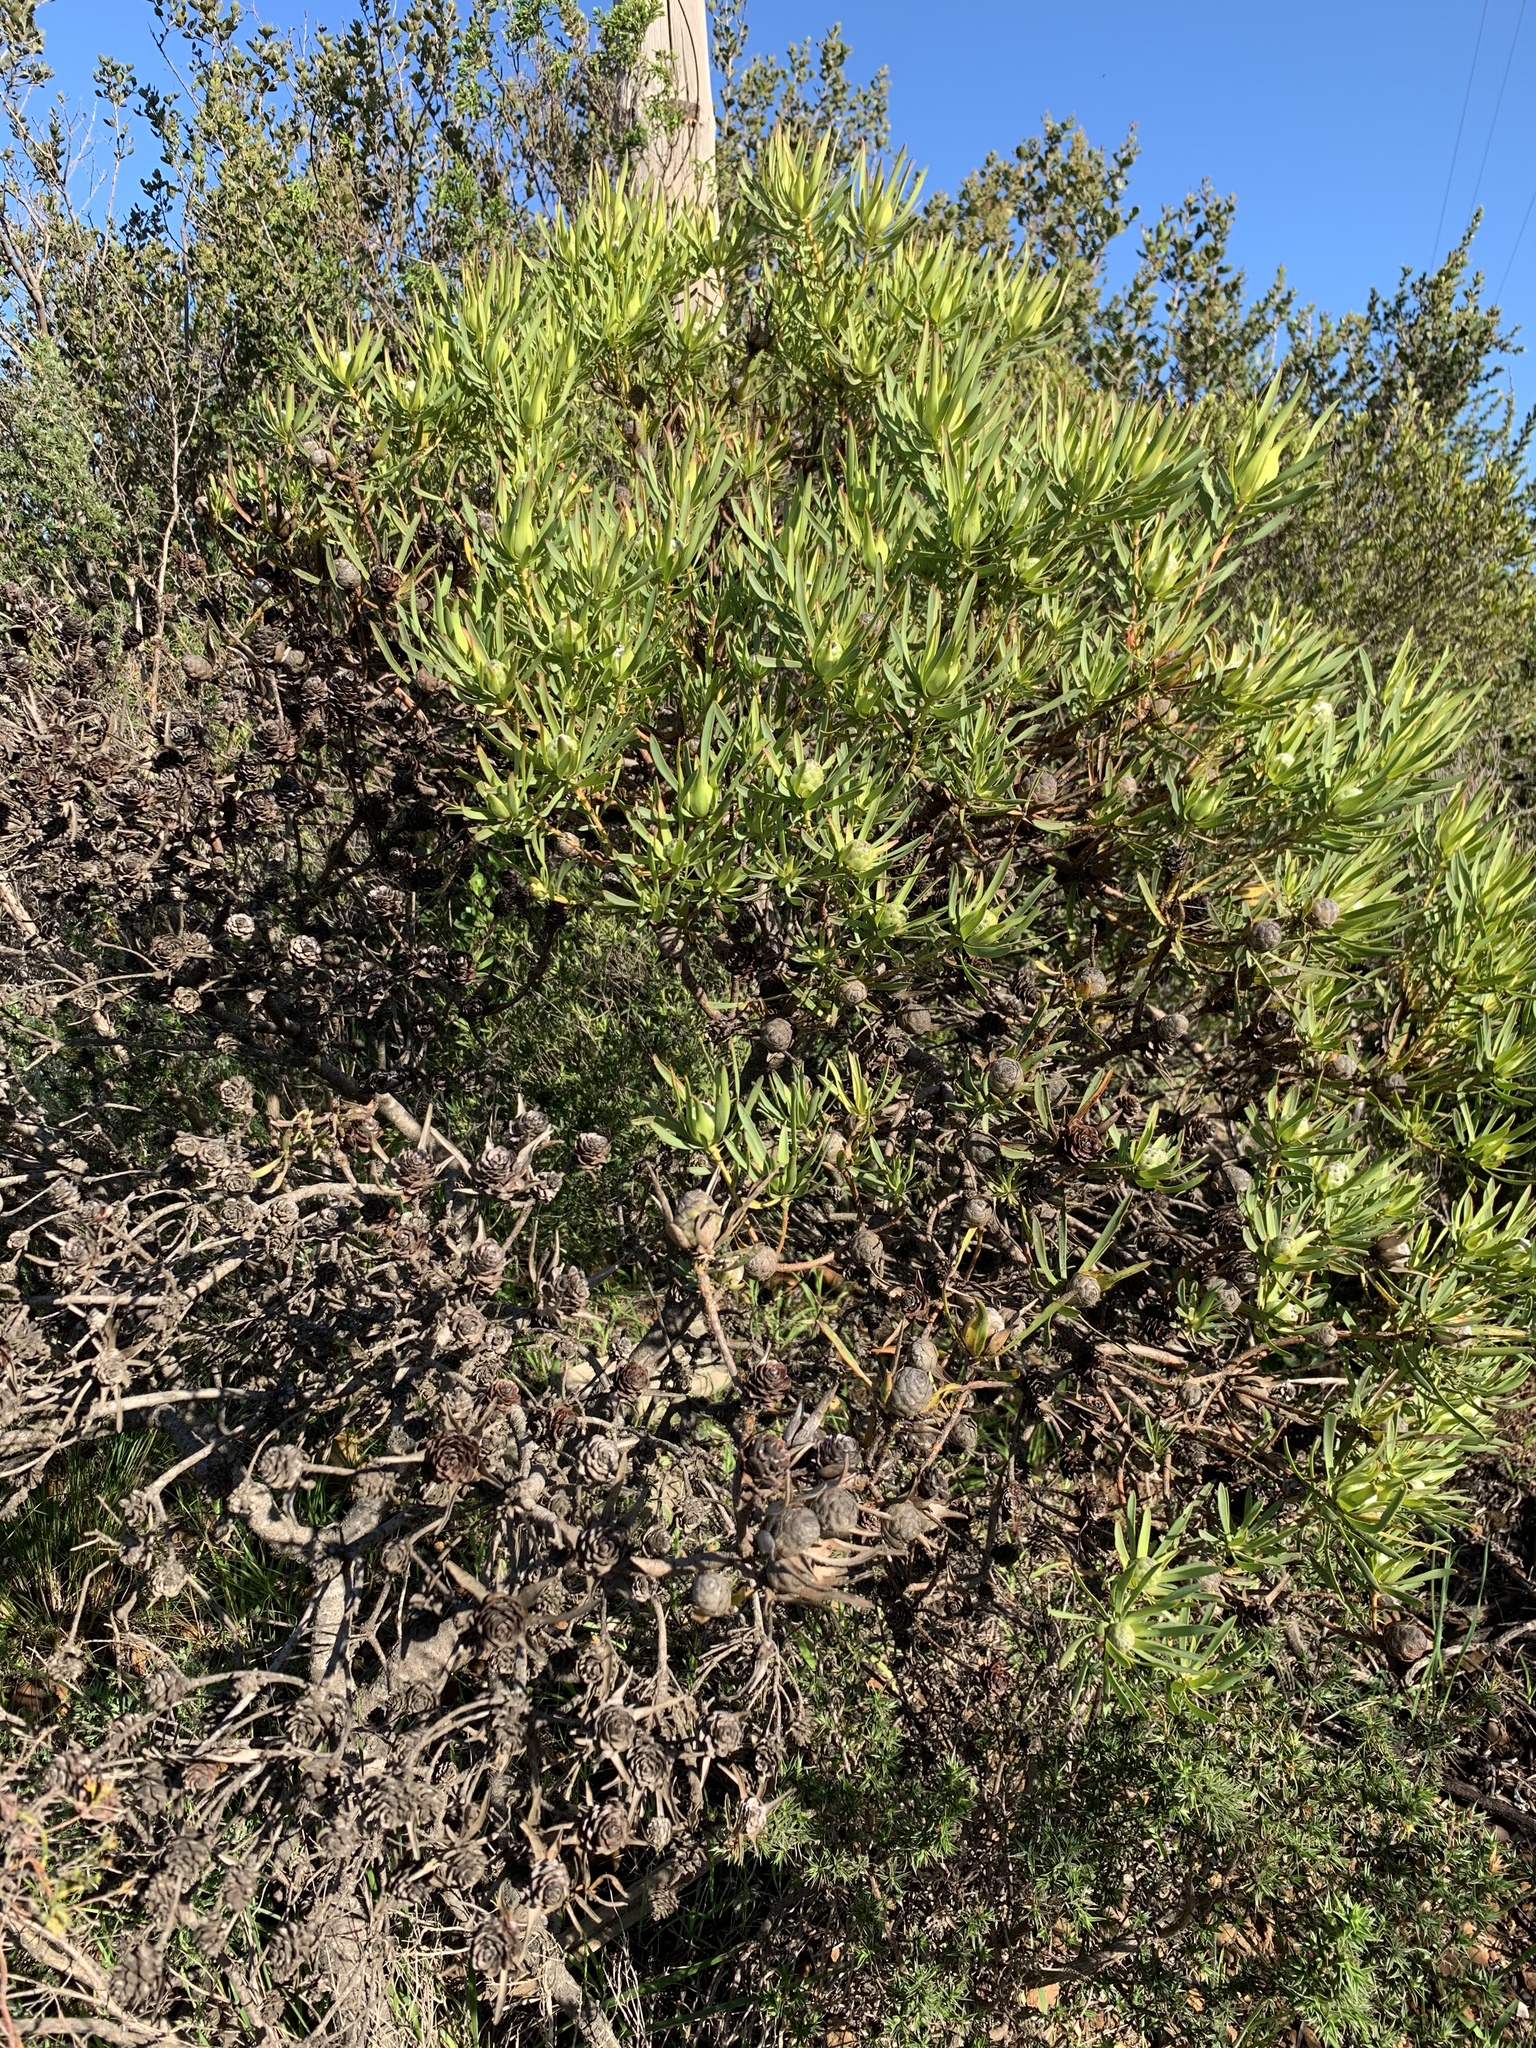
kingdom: Plantae
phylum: Tracheophyta
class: Magnoliopsida
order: Proteales
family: Proteaceae
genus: Leucadendron
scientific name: Leucadendron salignum
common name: Common sunshine conebush
